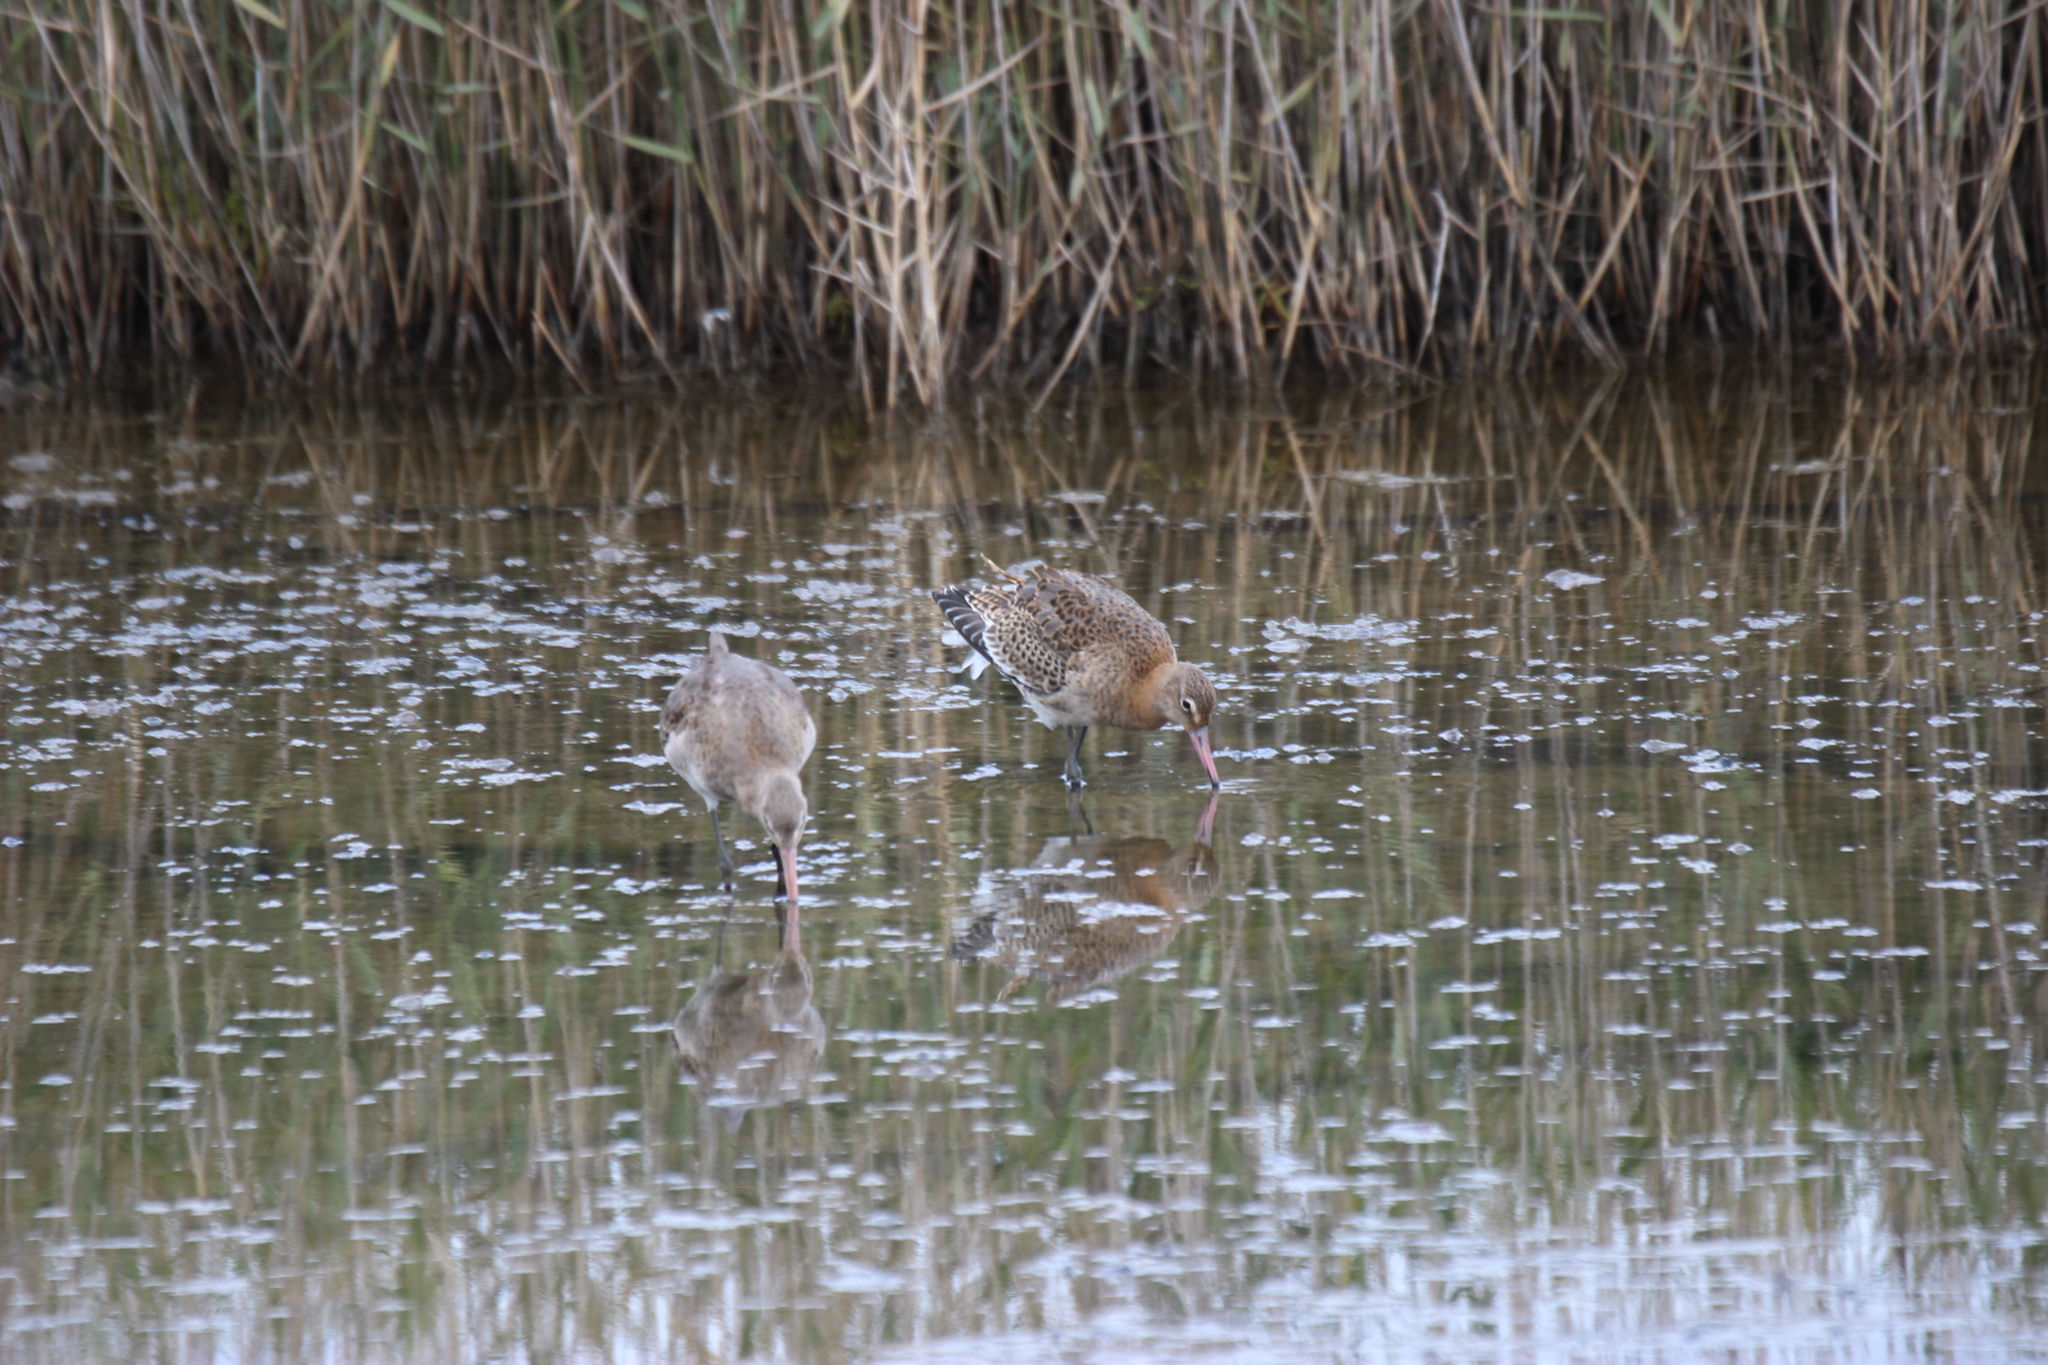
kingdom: Animalia
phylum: Chordata
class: Aves
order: Charadriiformes
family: Scolopacidae
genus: Limosa
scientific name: Limosa limosa
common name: Black-tailed godwit
